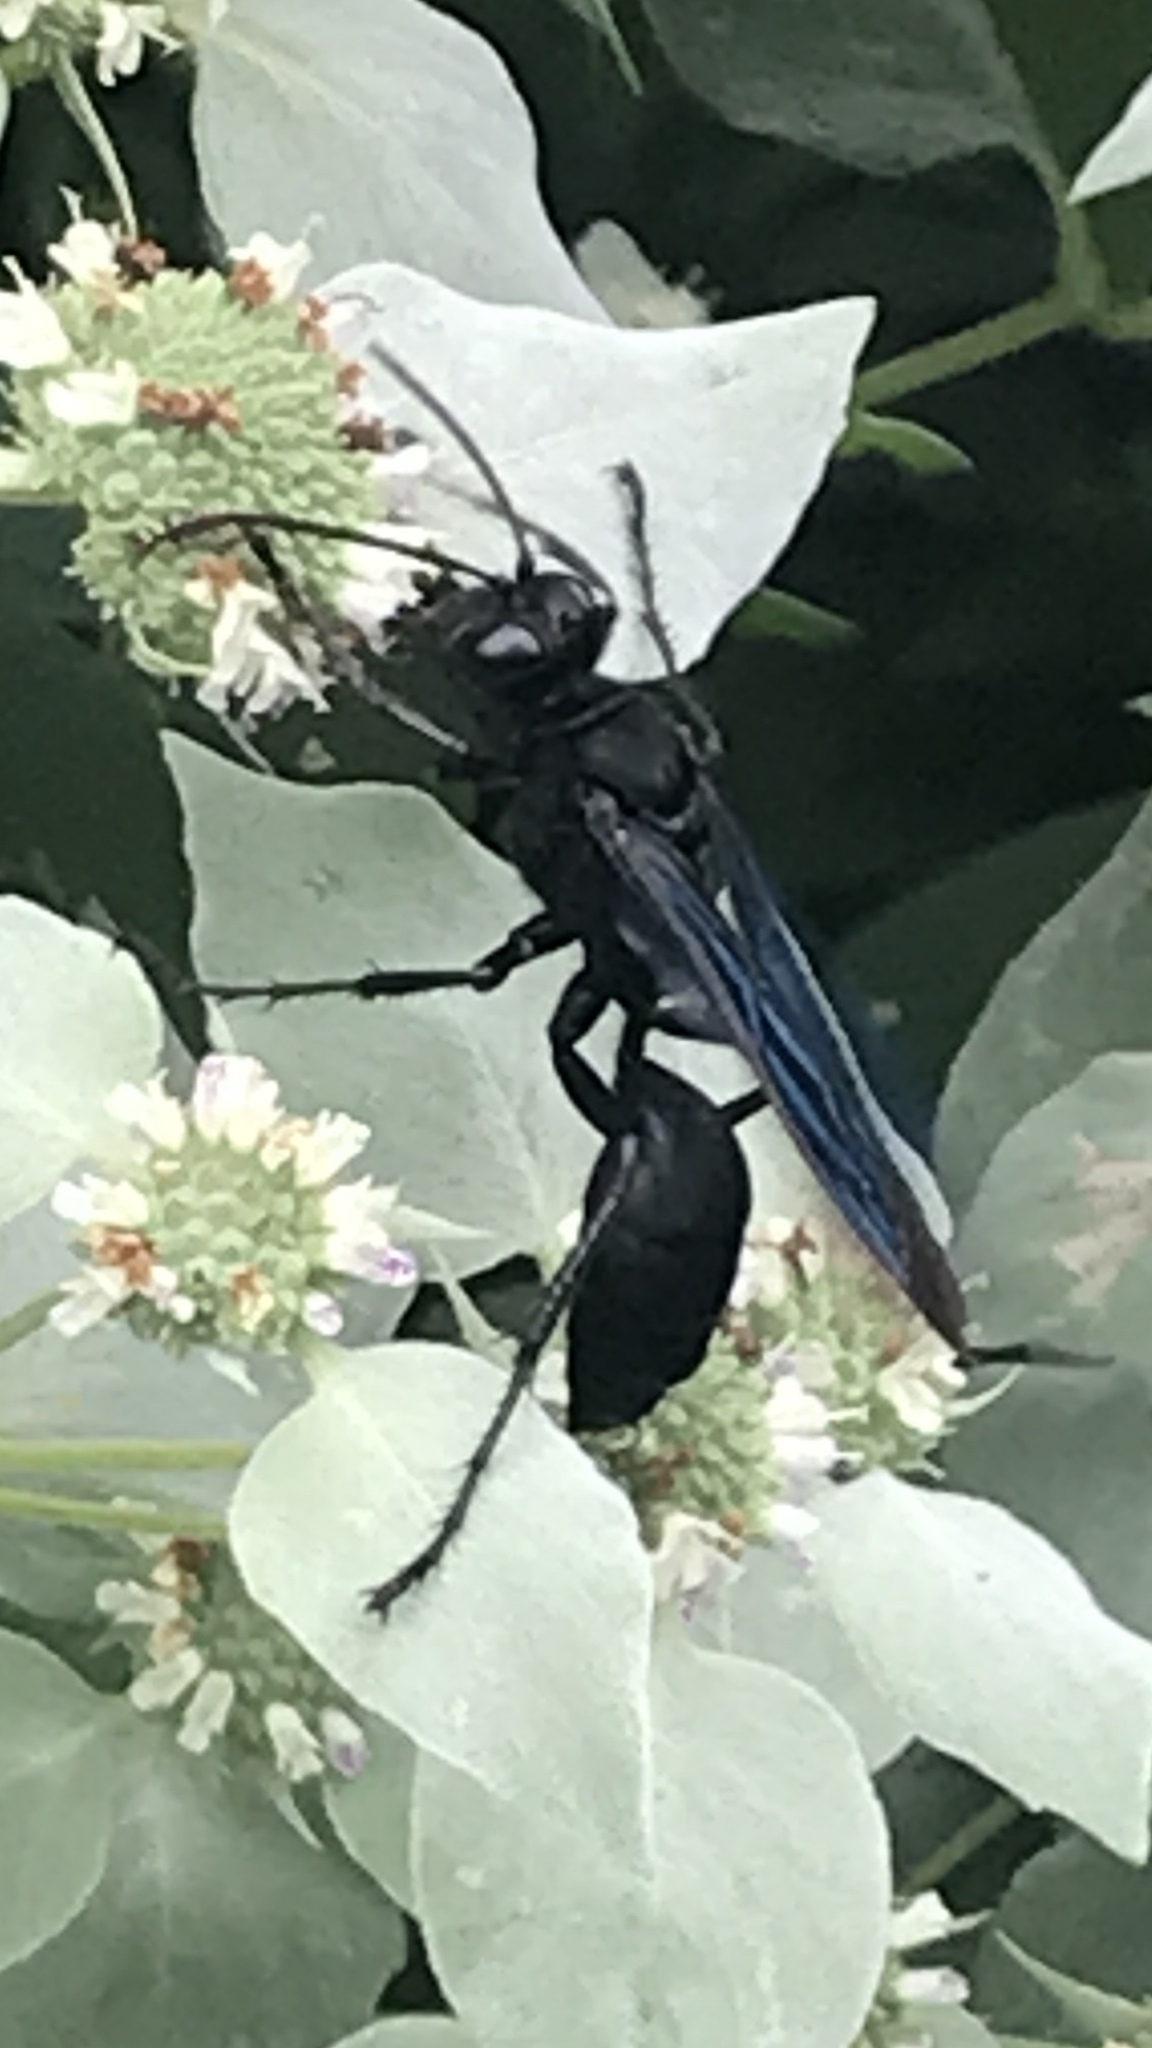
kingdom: Animalia
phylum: Arthropoda
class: Insecta
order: Hymenoptera
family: Sphecidae
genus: Sphex
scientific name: Sphex pensylvanicus
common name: Great black digger wasp
